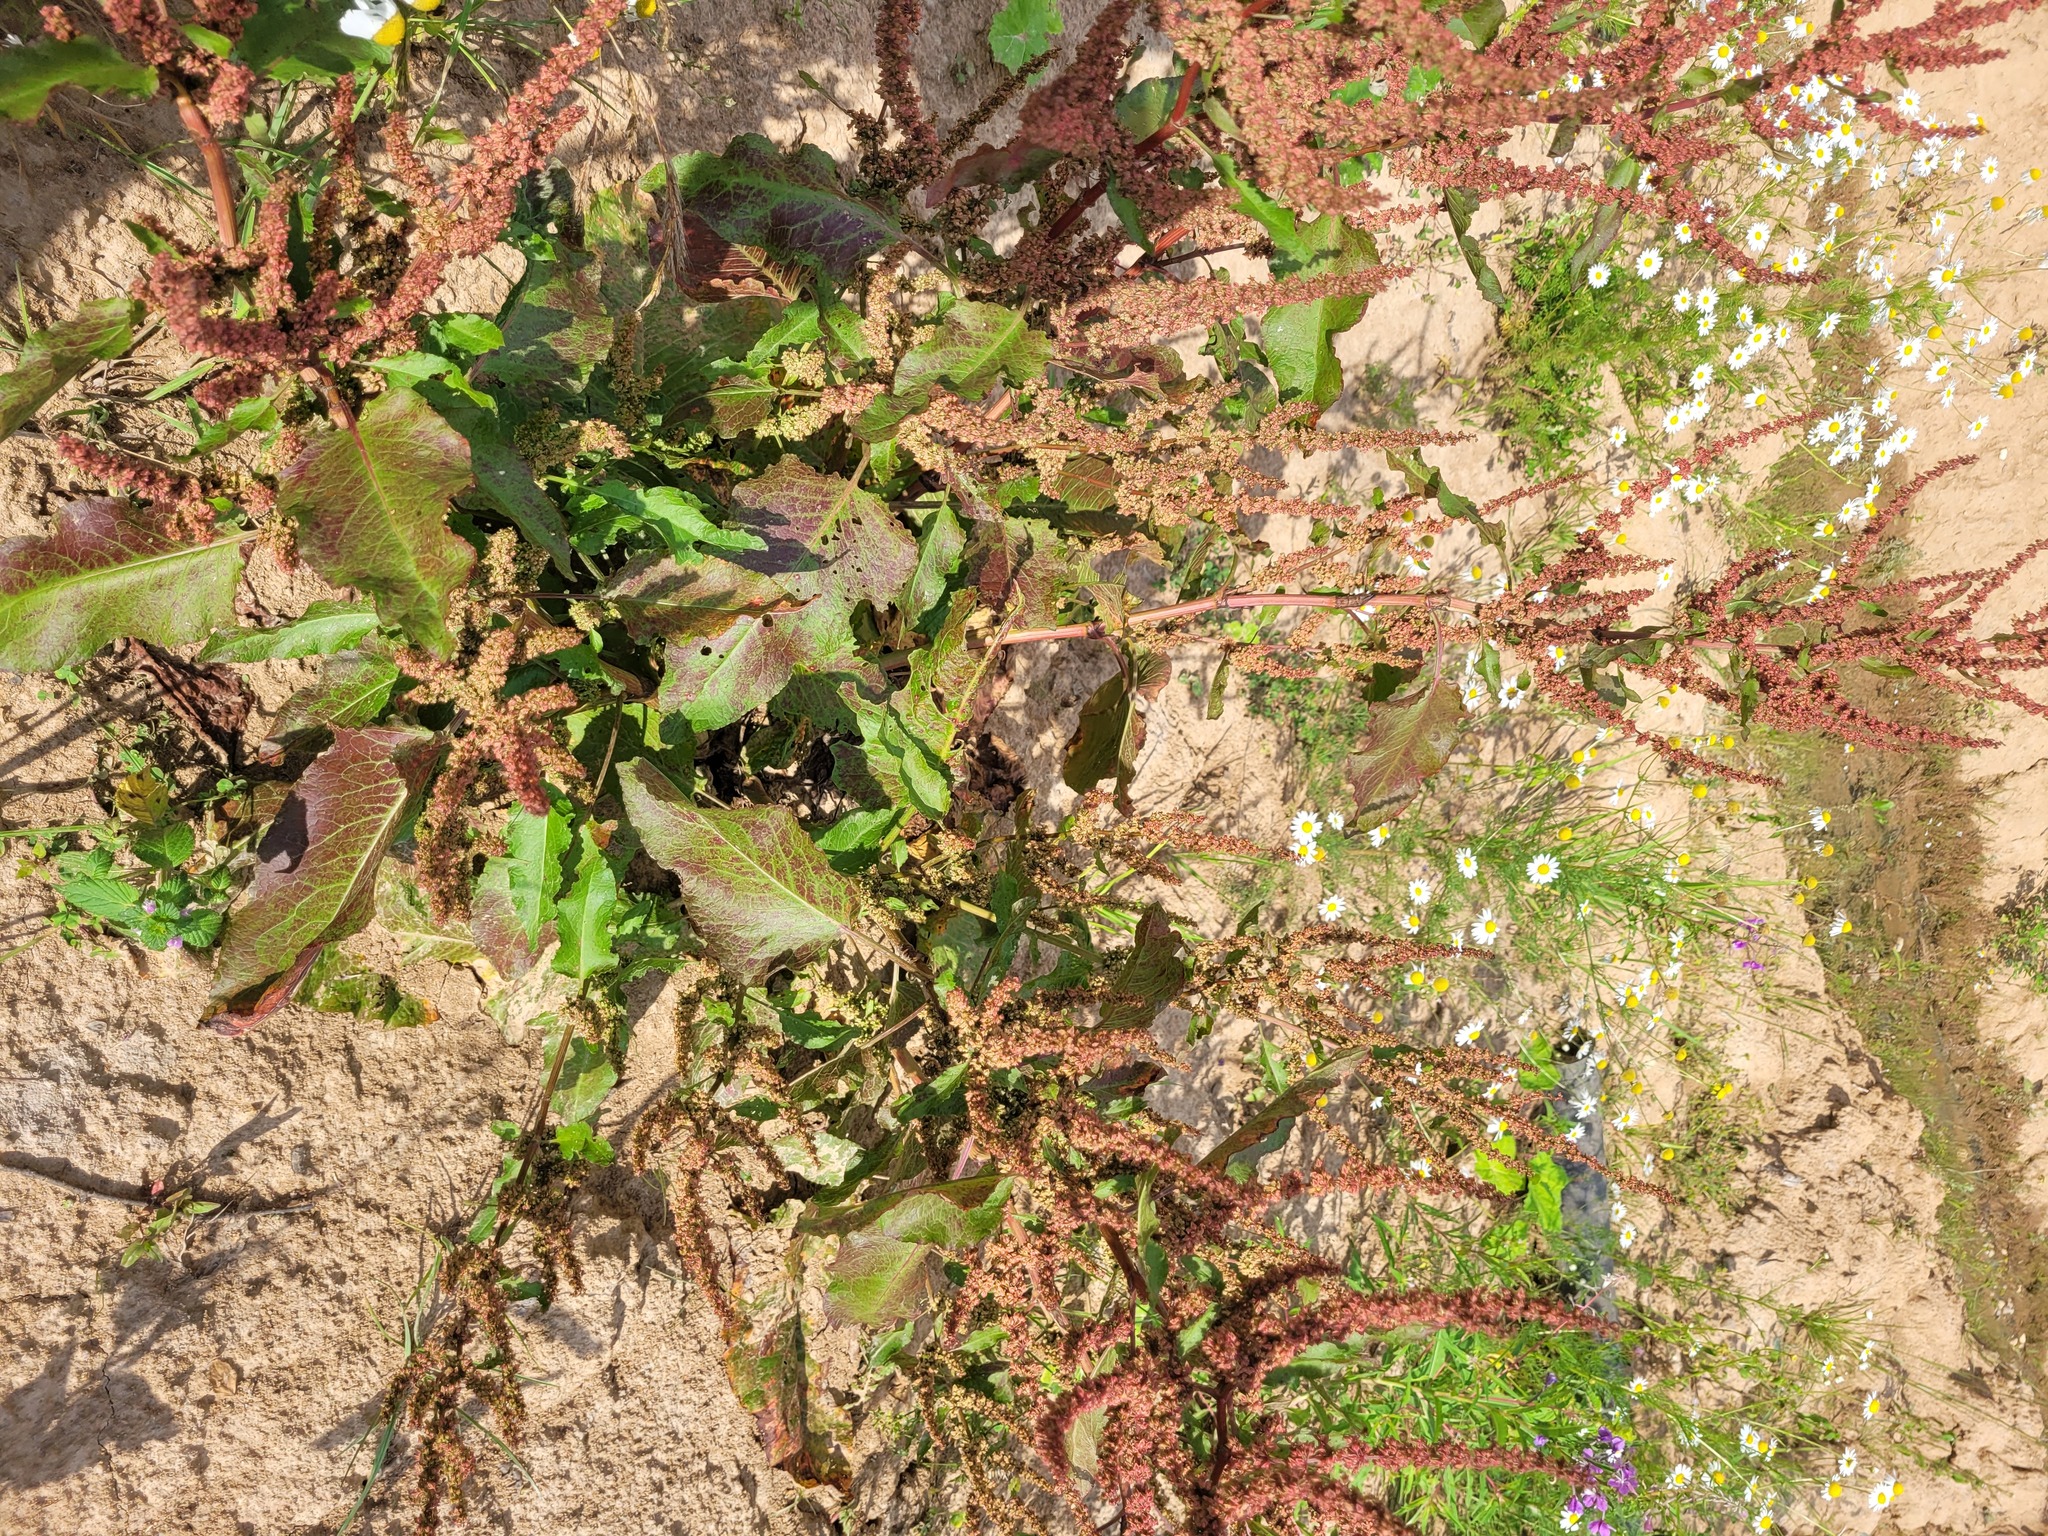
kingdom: Plantae
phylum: Tracheophyta
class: Magnoliopsida
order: Caryophyllales
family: Polygonaceae
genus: Rumex
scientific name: Rumex obtusifolius
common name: Bitter dock
